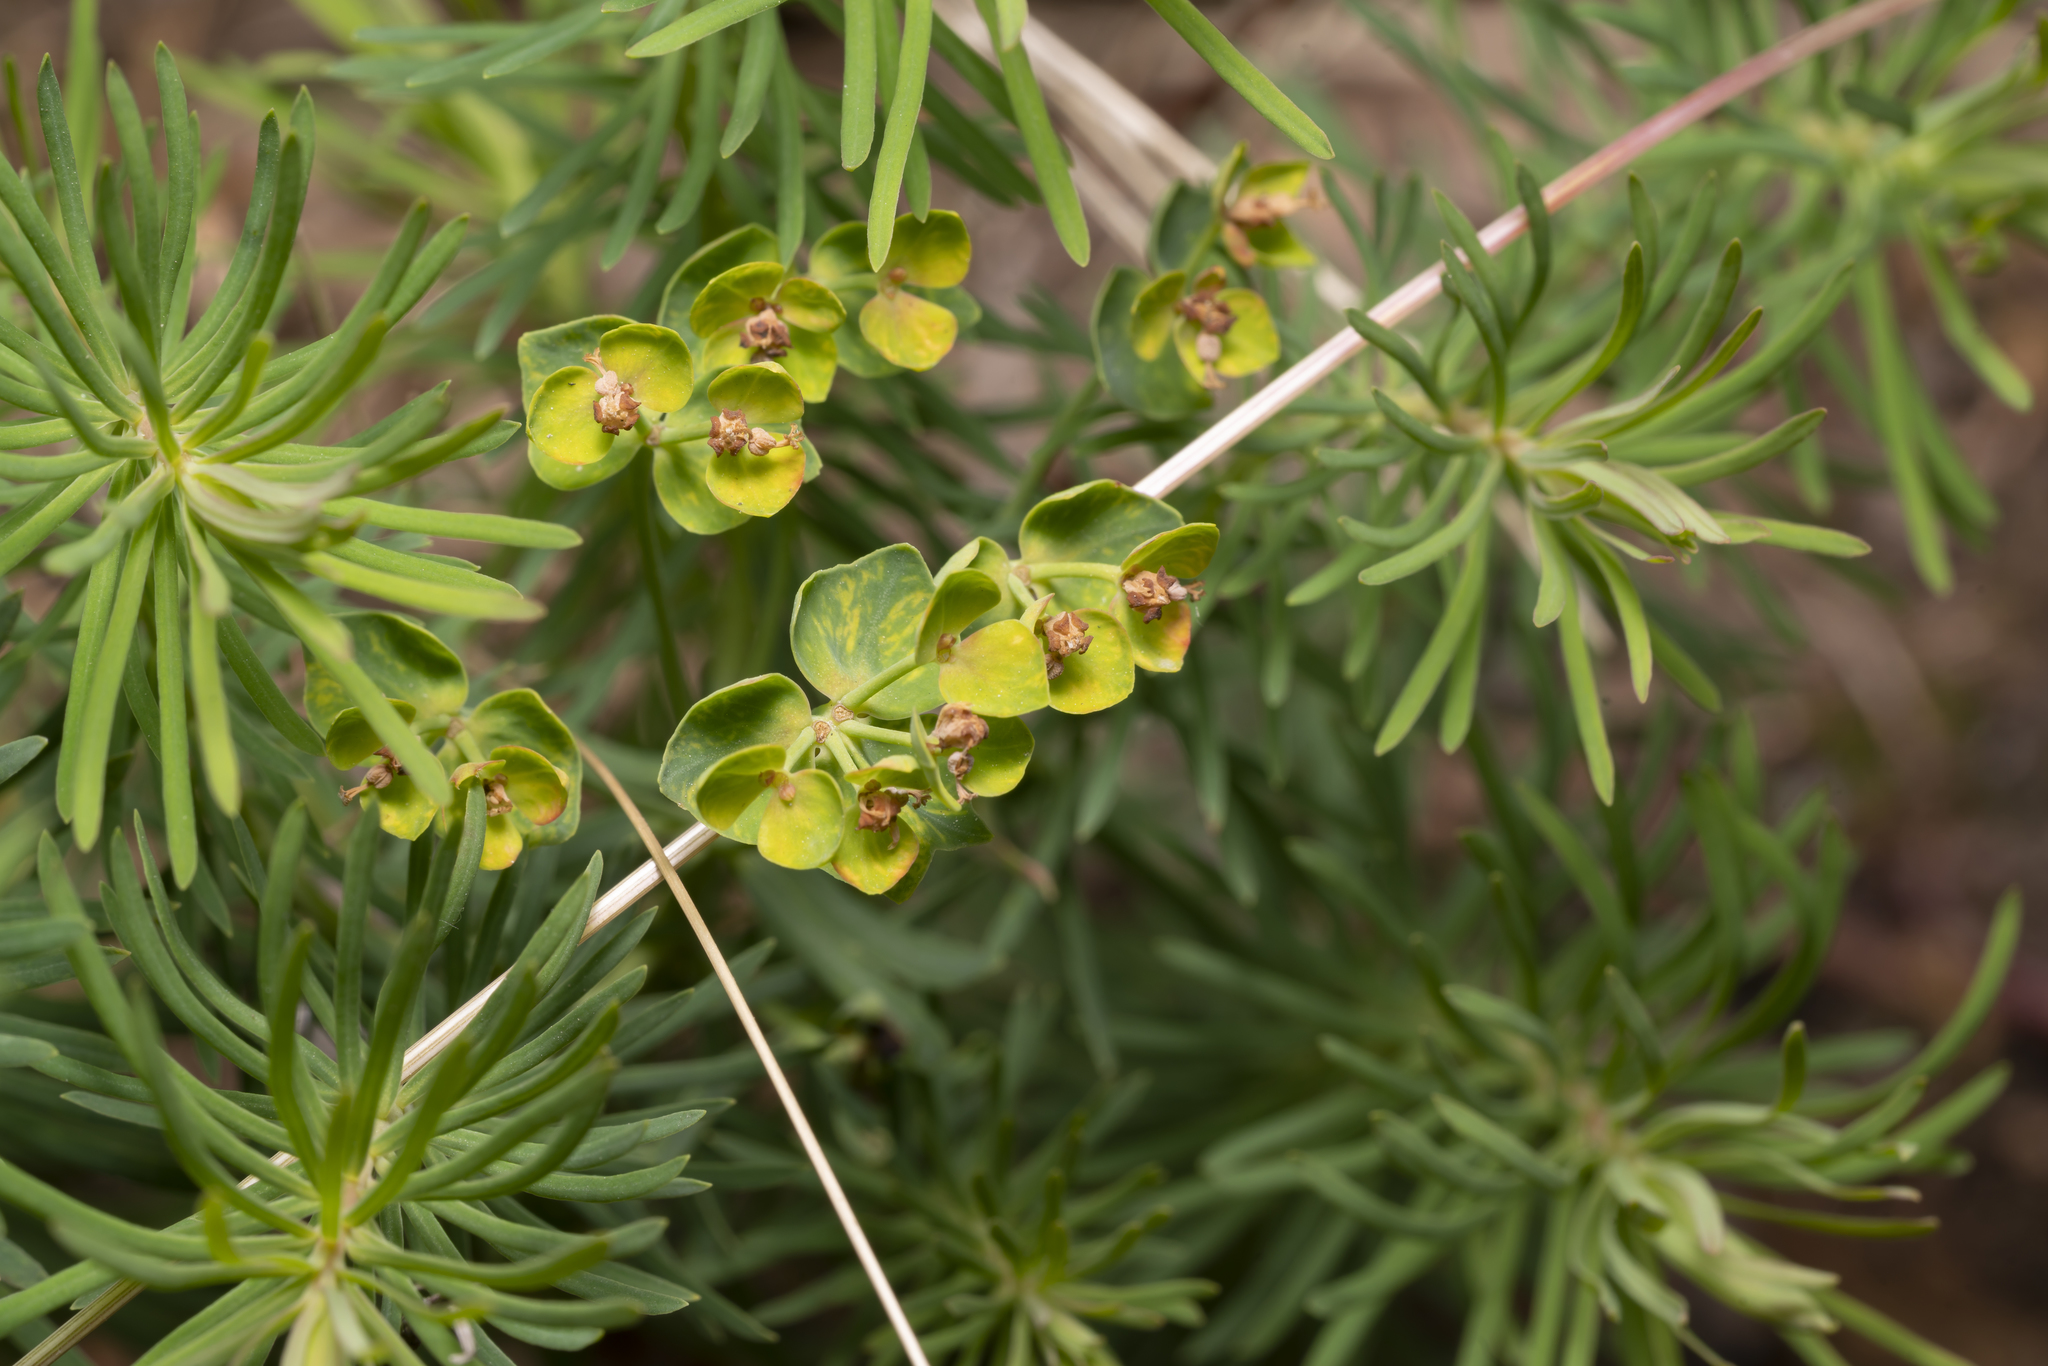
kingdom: Plantae
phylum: Tracheophyta
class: Magnoliopsida
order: Malpighiales
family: Euphorbiaceae
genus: Euphorbia
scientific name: Euphorbia cyparissias
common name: Cypress spurge
